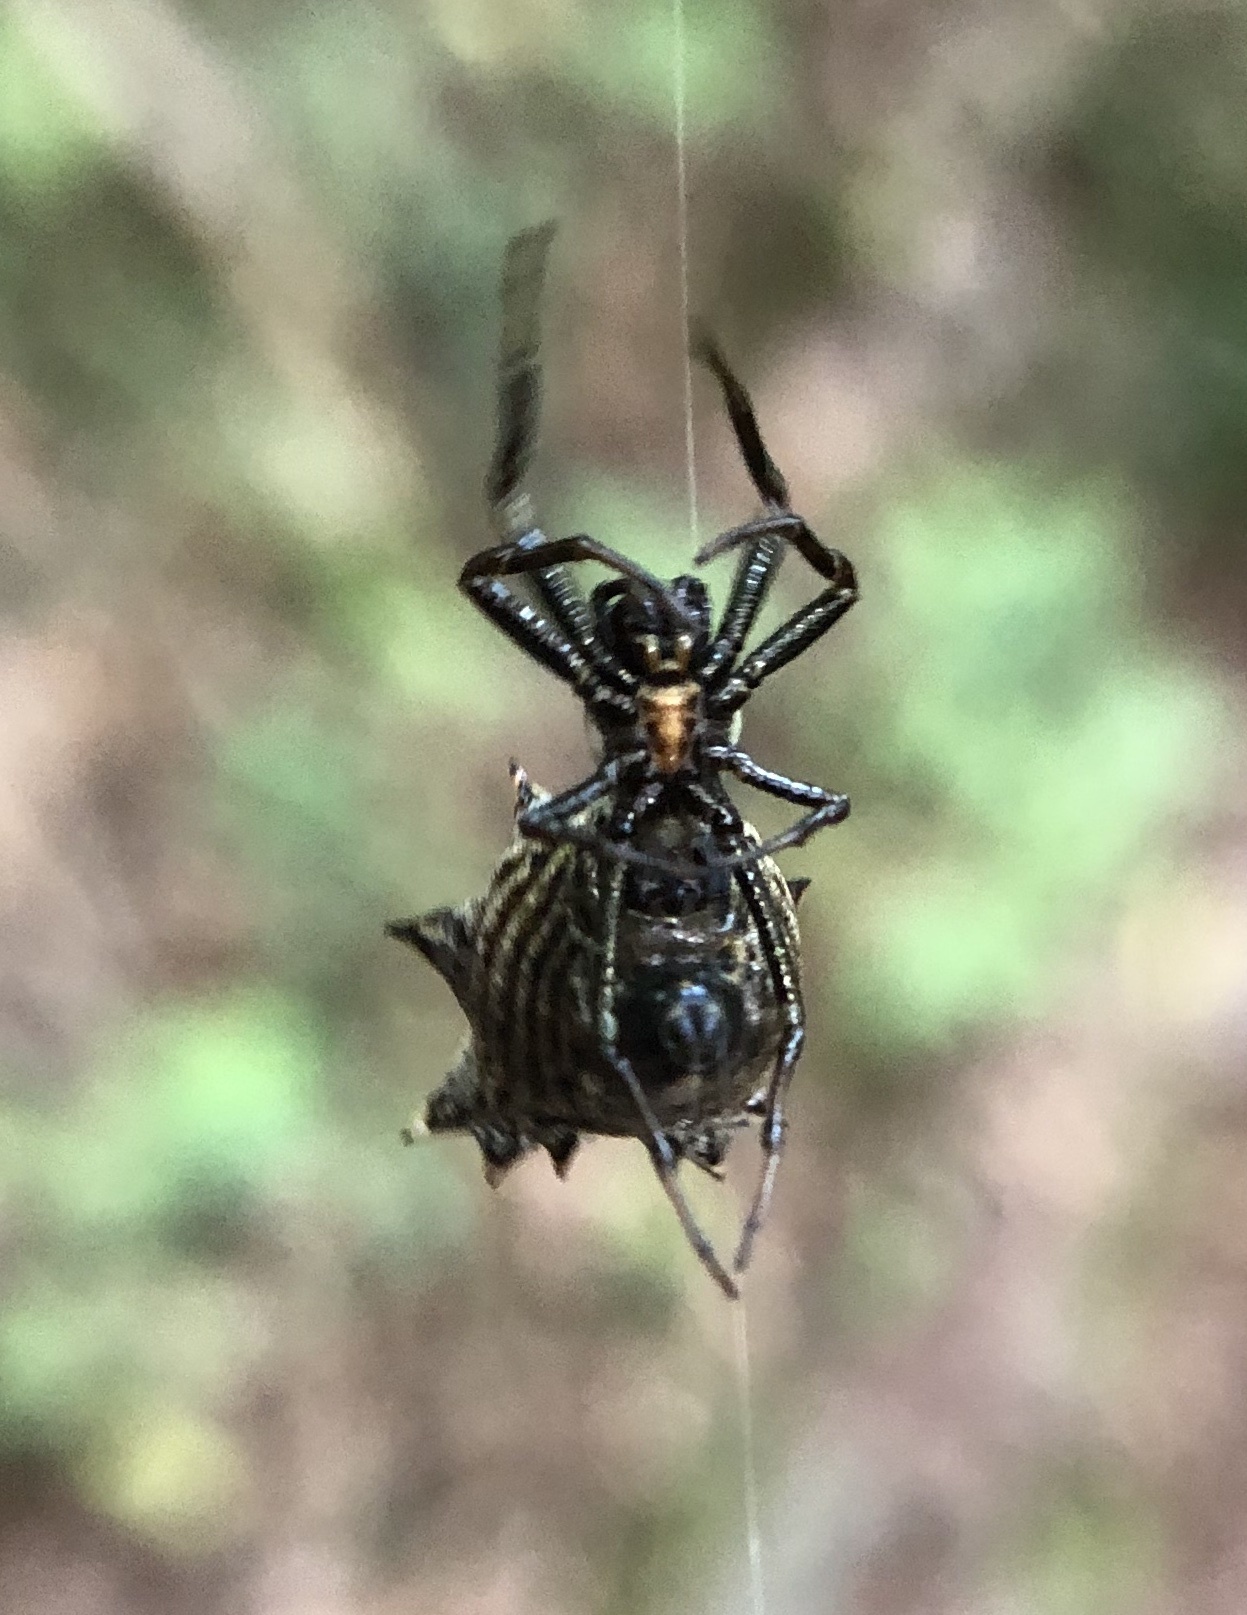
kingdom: Animalia
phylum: Arthropoda
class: Arachnida
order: Araneae
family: Araneidae
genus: Micrathena
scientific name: Micrathena gracilis
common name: Orb weavers
